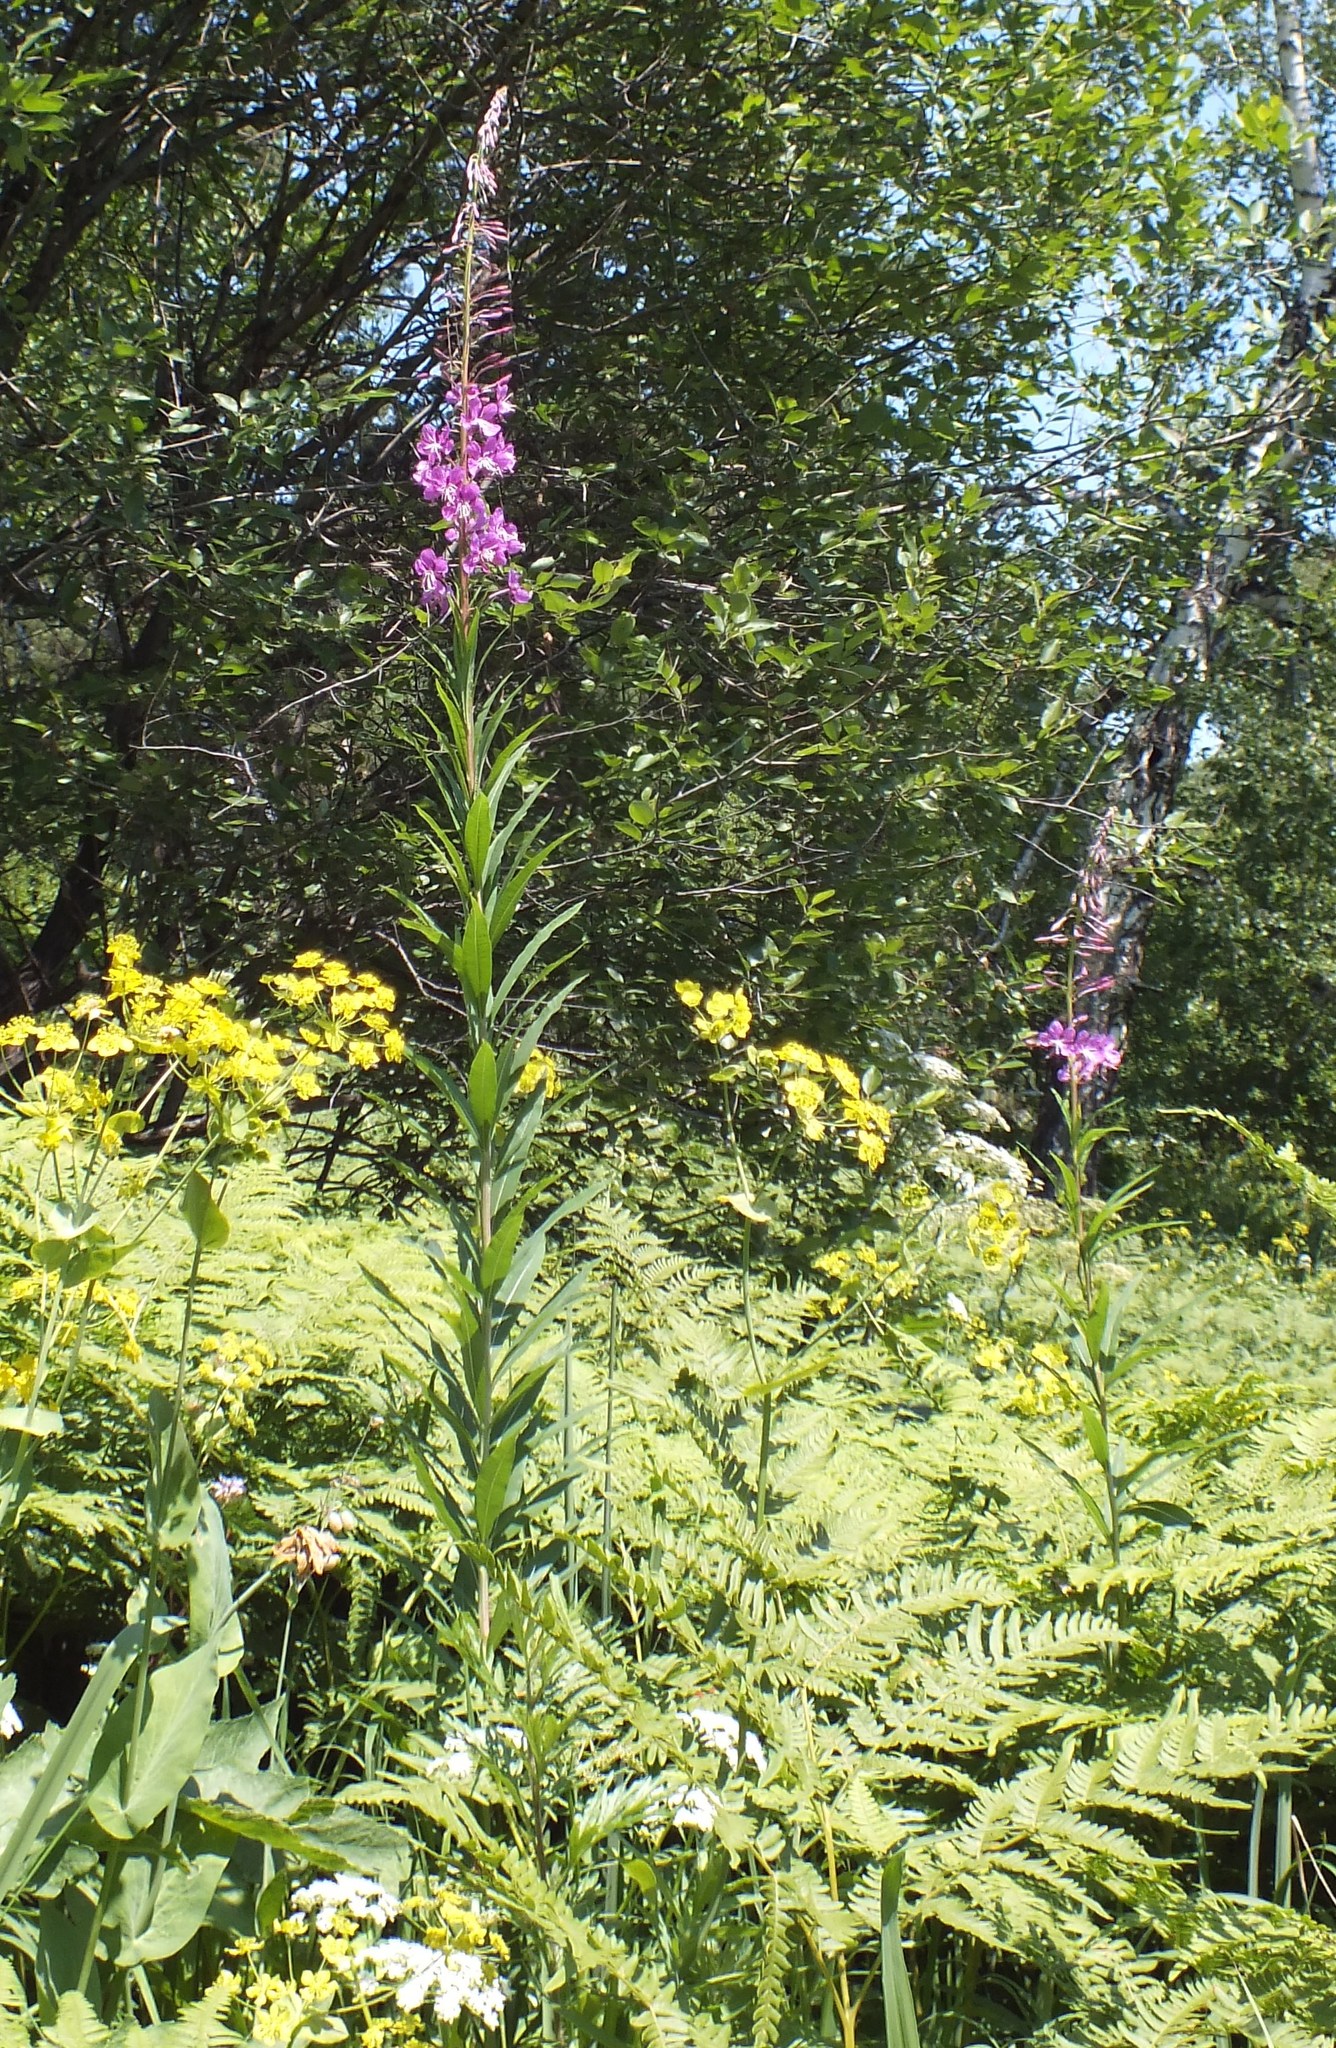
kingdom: Plantae
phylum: Tracheophyta
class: Magnoliopsida
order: Myrtales
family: Onagraceae
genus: Chamaenerion
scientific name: Chamaenerion angustifolium
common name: Fireweed
